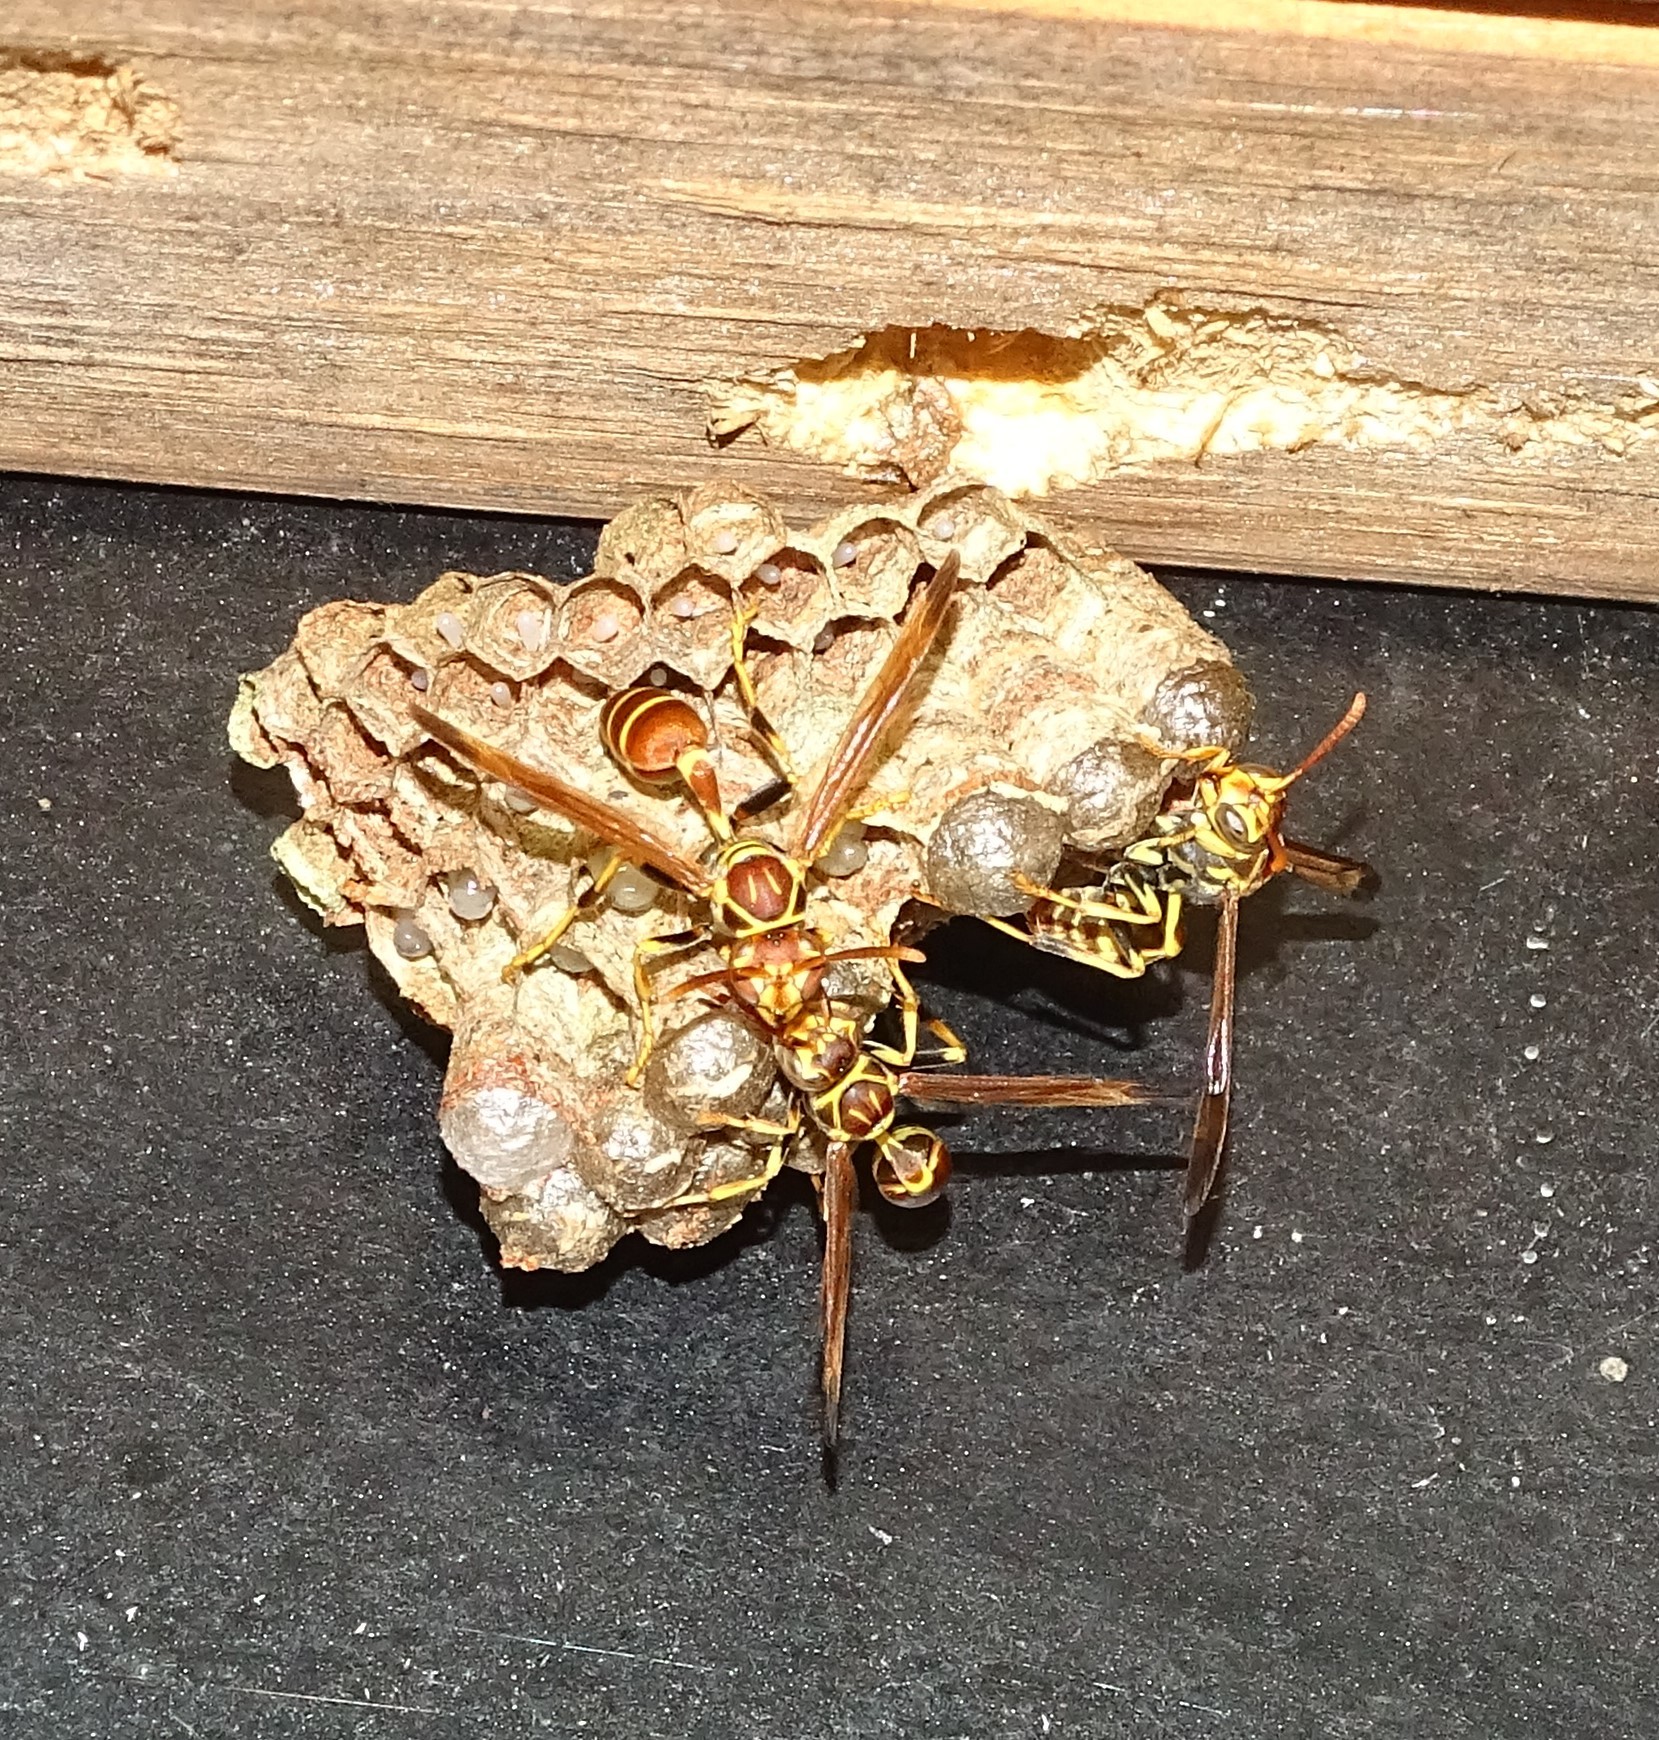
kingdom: Animalia
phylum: Arthropoda
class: Insecta
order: Hymenoptera
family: Vespidae
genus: Mischocyttarus
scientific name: Mischocyttarus mexicanus
